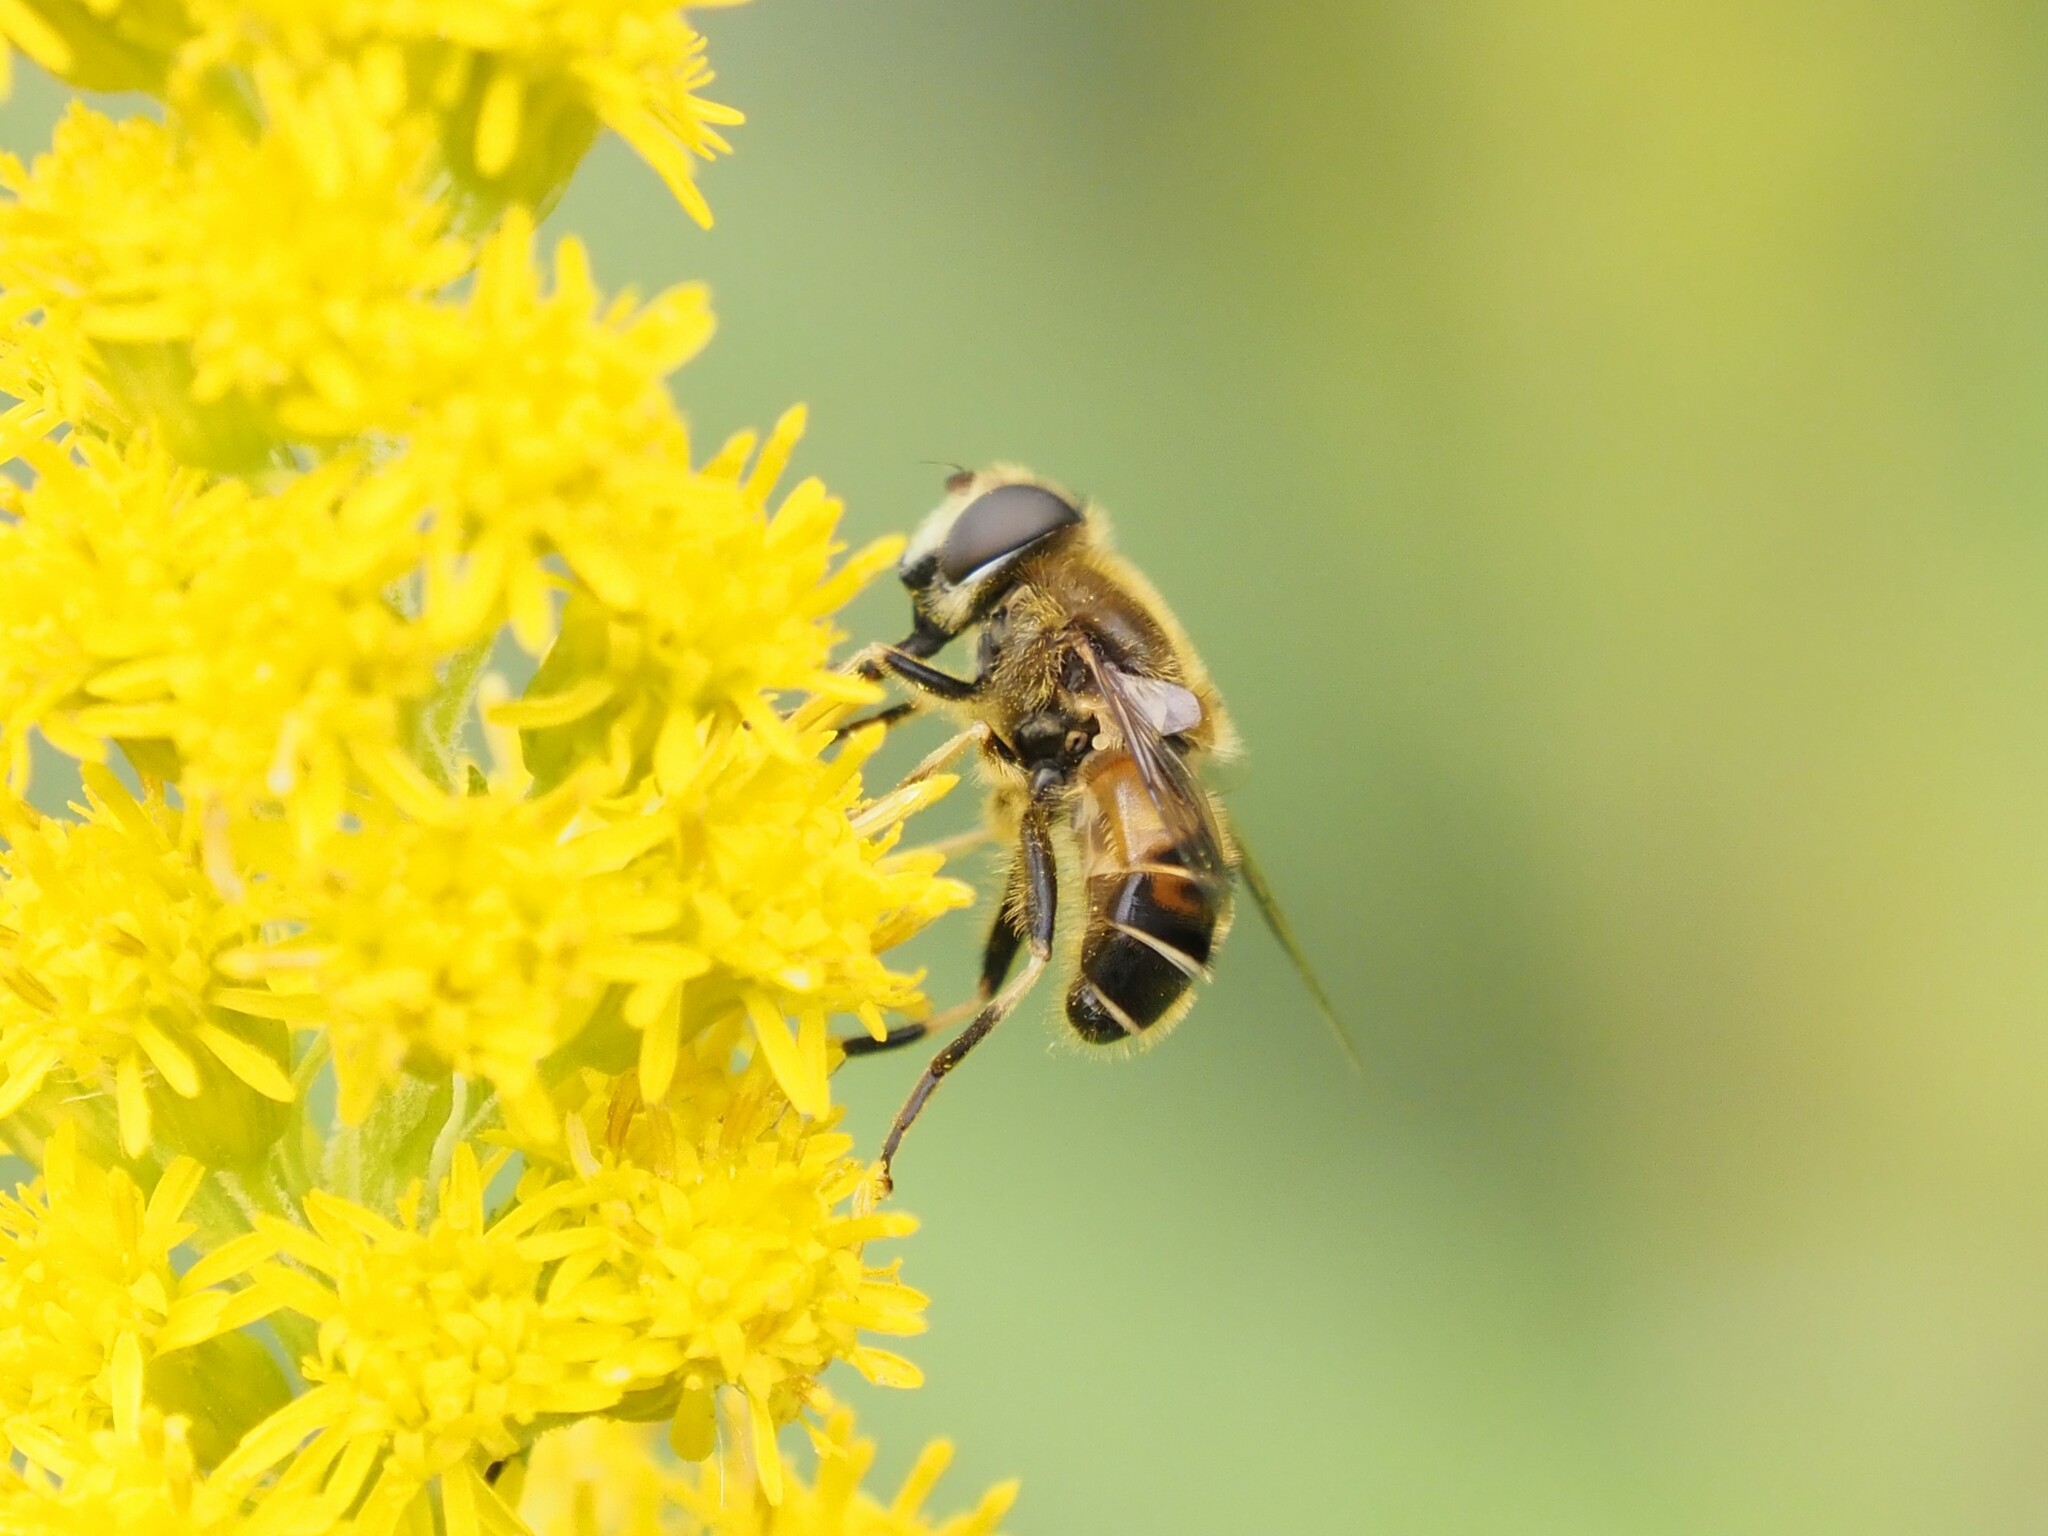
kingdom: Animalia
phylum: Arthropoda
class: Insecta
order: Diptera
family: Syrphidae
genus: Eristalis
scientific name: Eristalis nemorum
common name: Orange-spined drone fly
